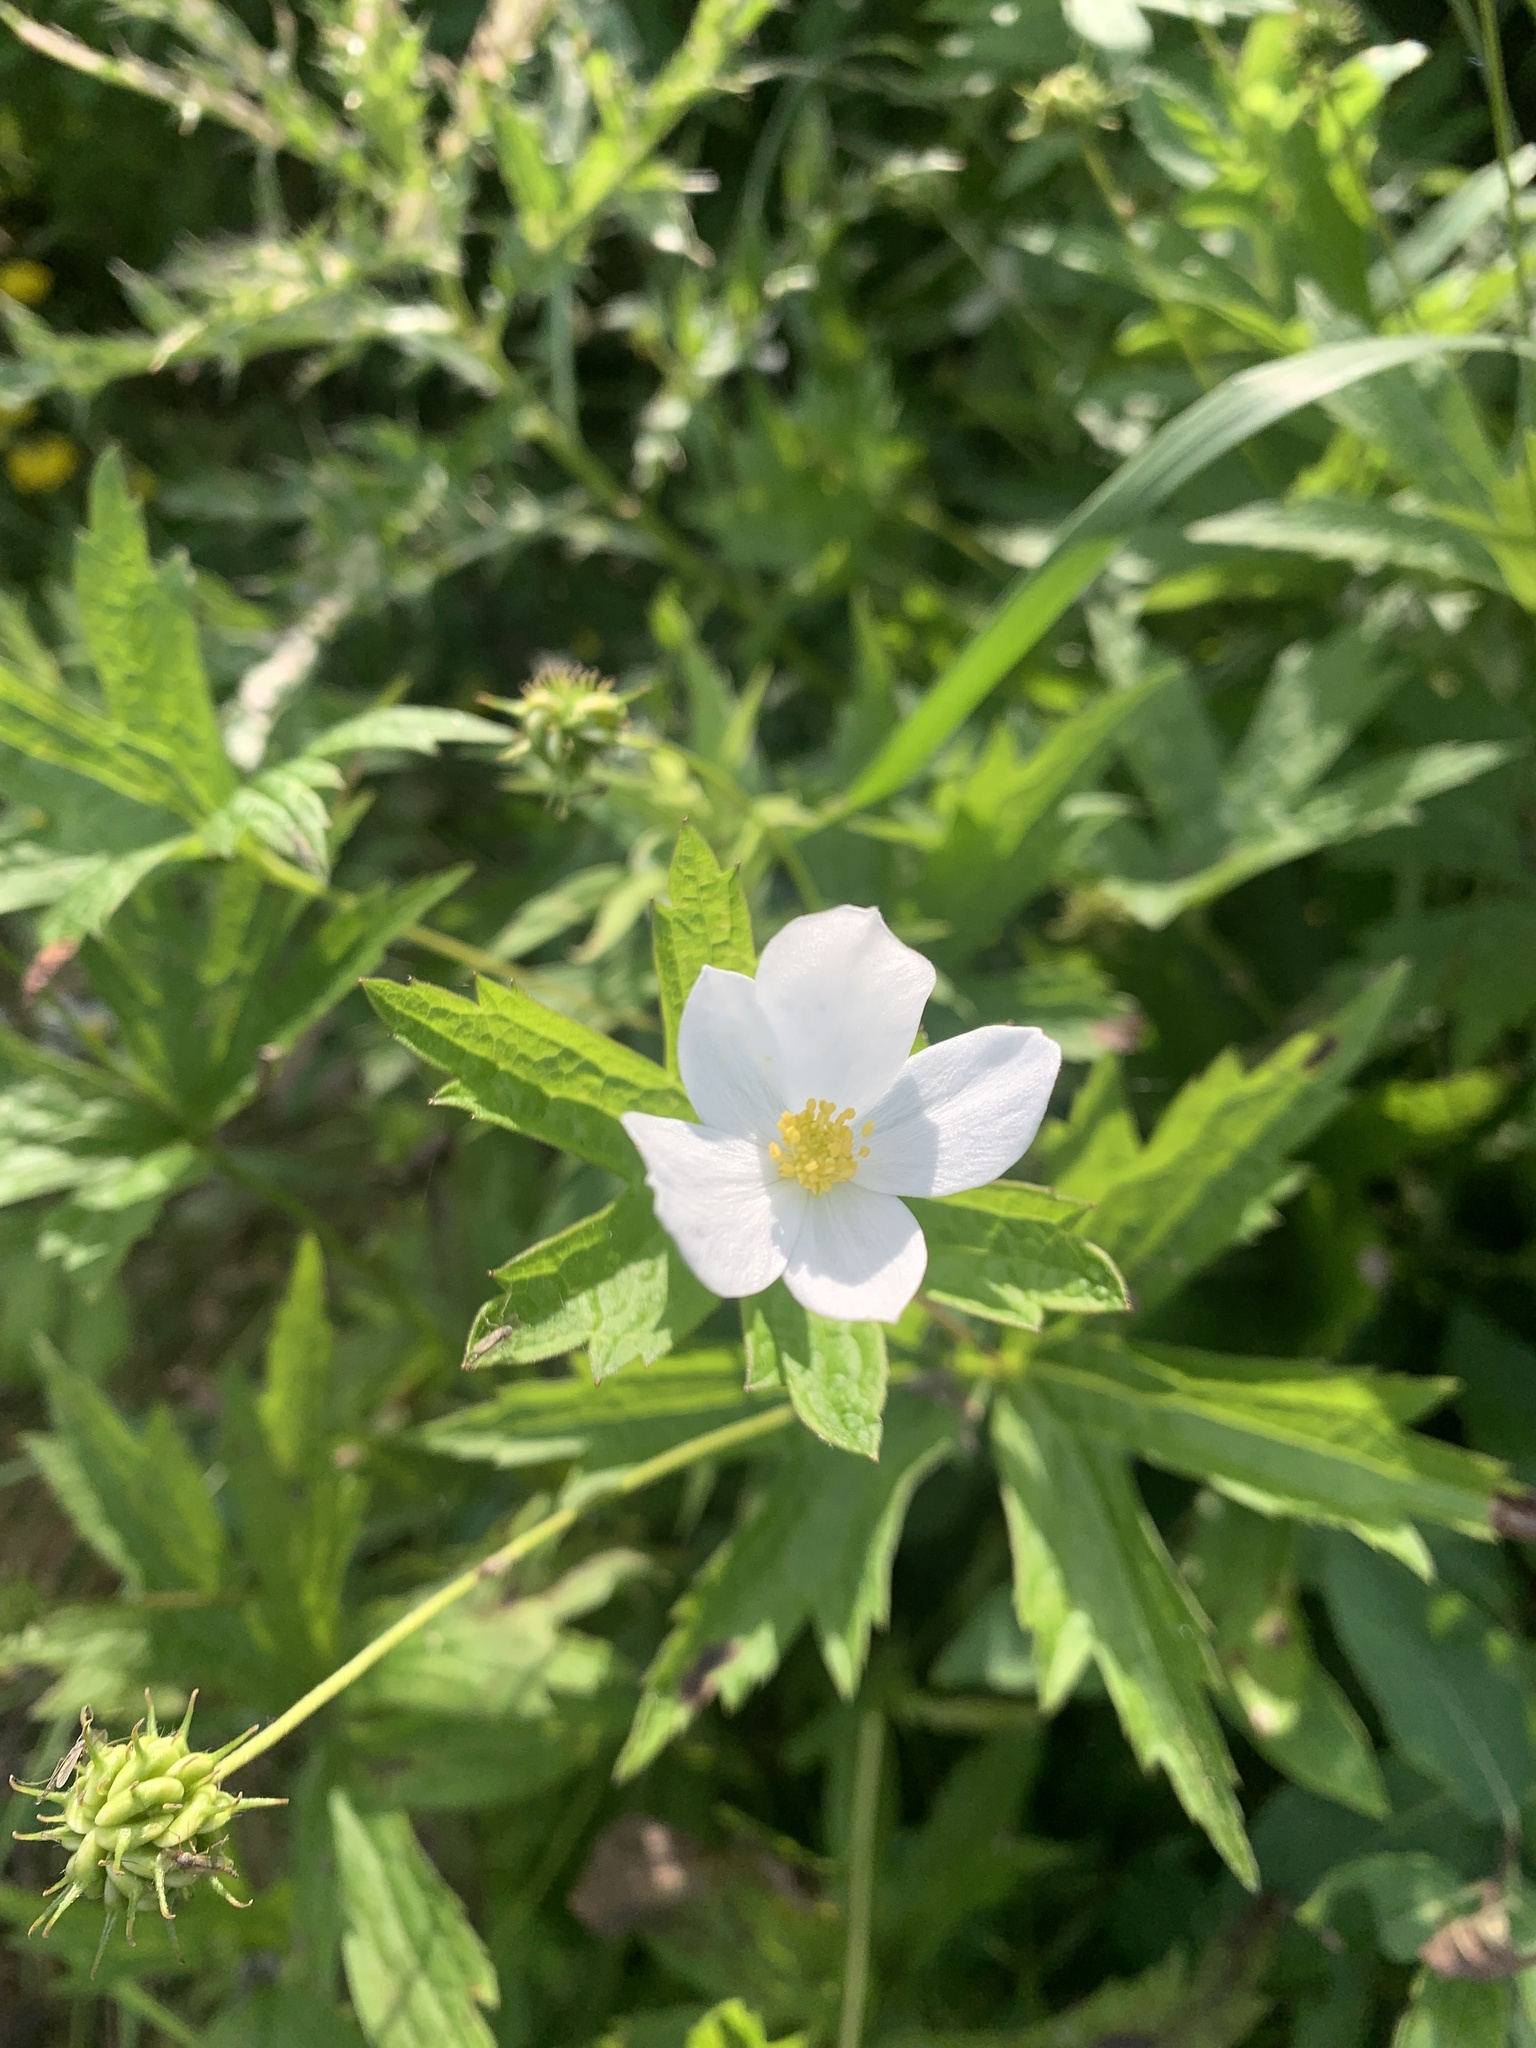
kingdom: Plantae
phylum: Tracheophyta
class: Magnoliopsida
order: Ranunculales
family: Ranunculaceae
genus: Anemonastrum
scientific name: Anemonastrum canadense
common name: Canada anemone
